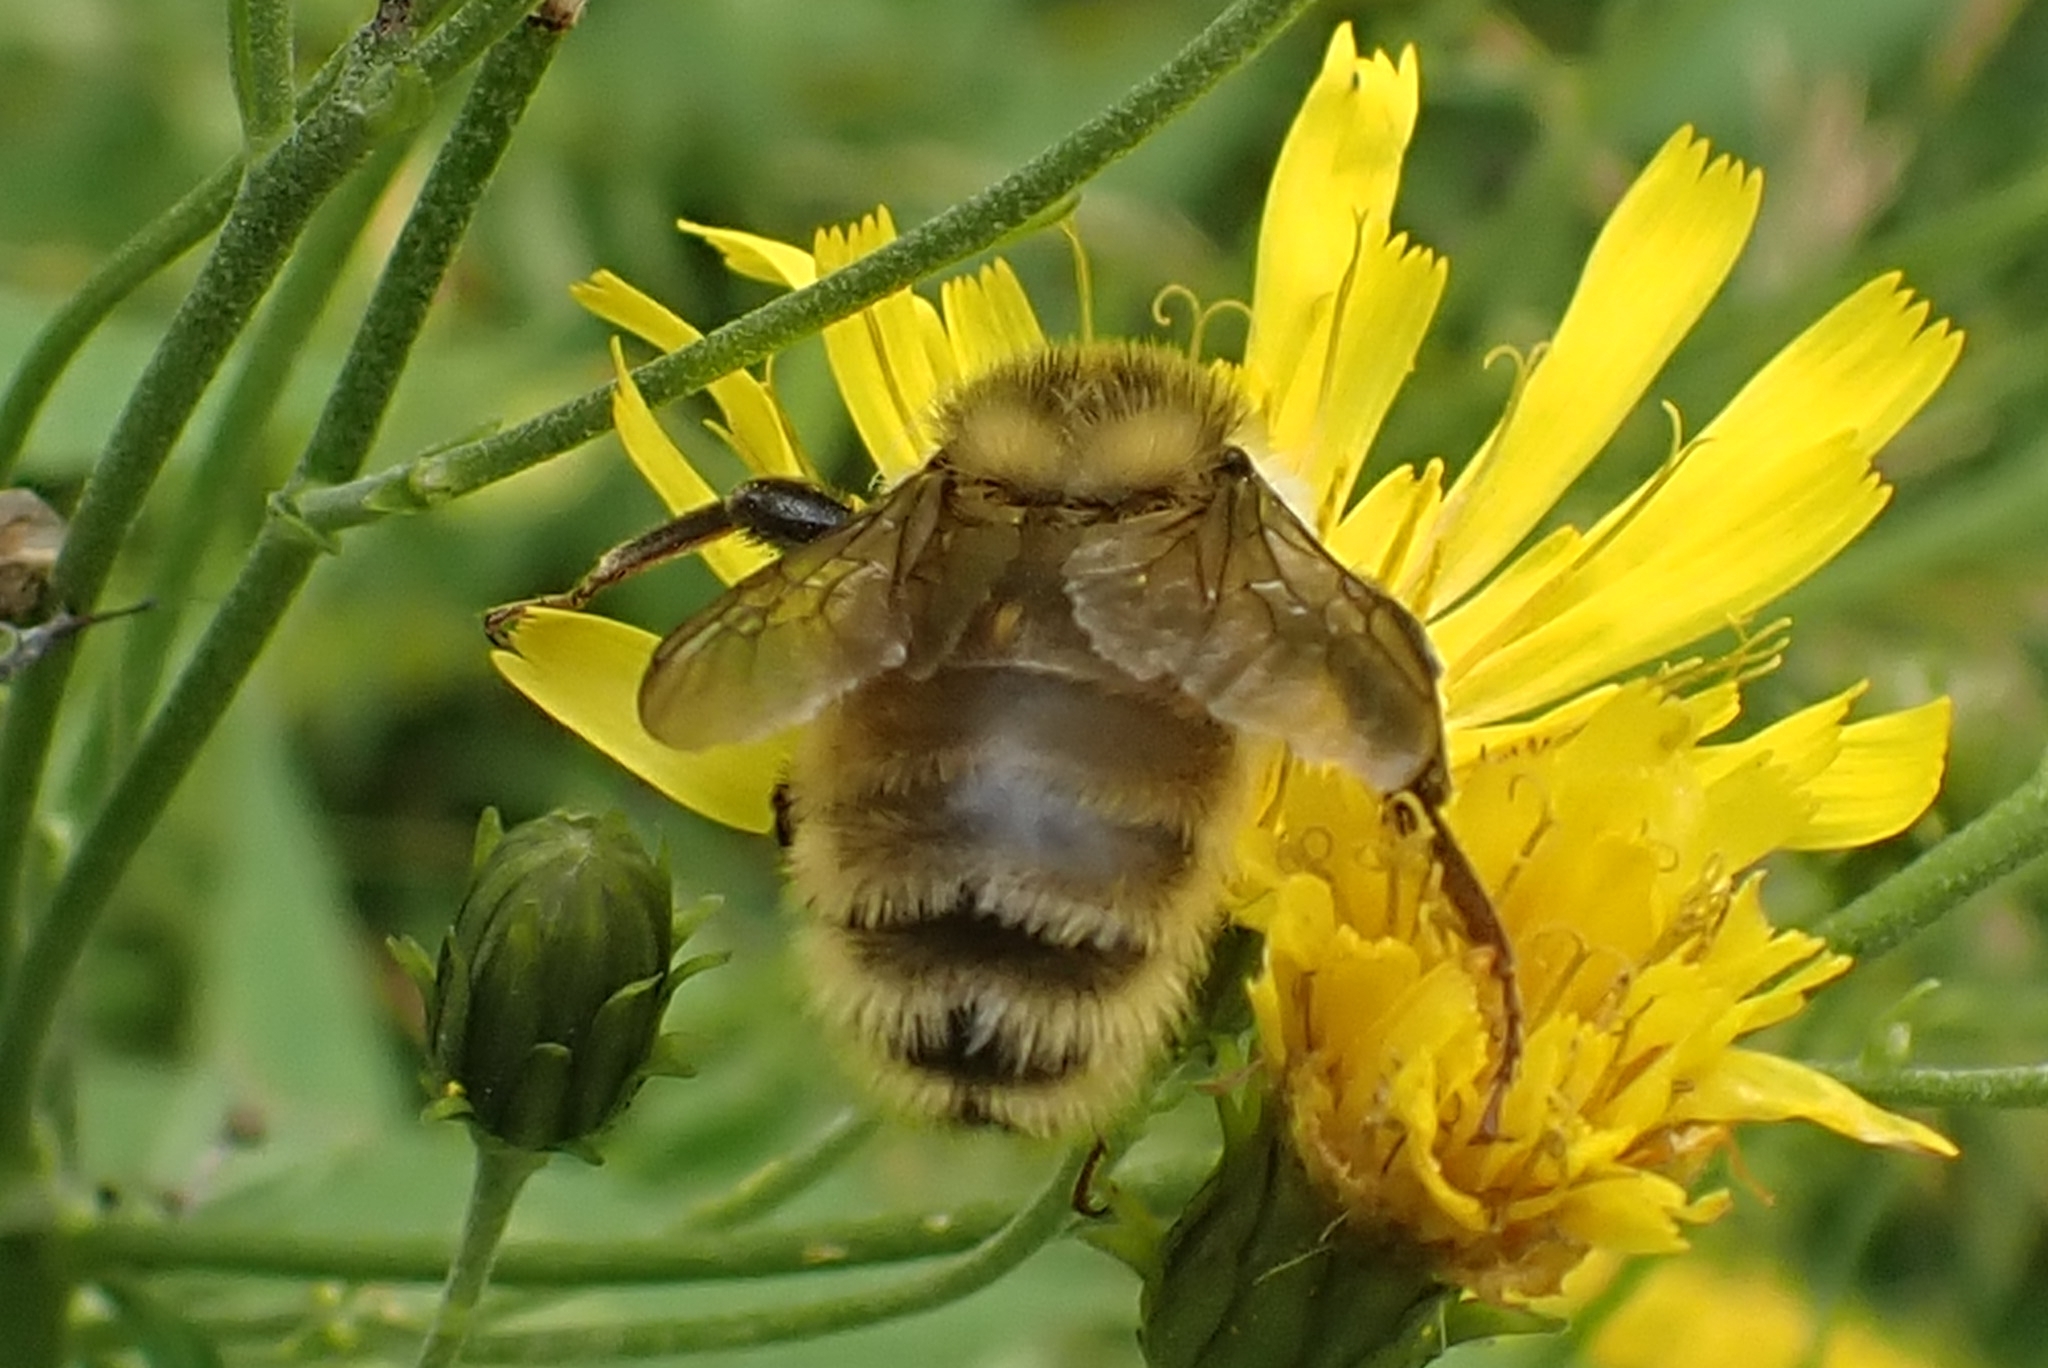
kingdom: Animalia
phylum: Arthropoda
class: Insecta
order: Hymenoptera
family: Apidae
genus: Bombus
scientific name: Bombus distinguendus
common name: Great yellow humble-bee
